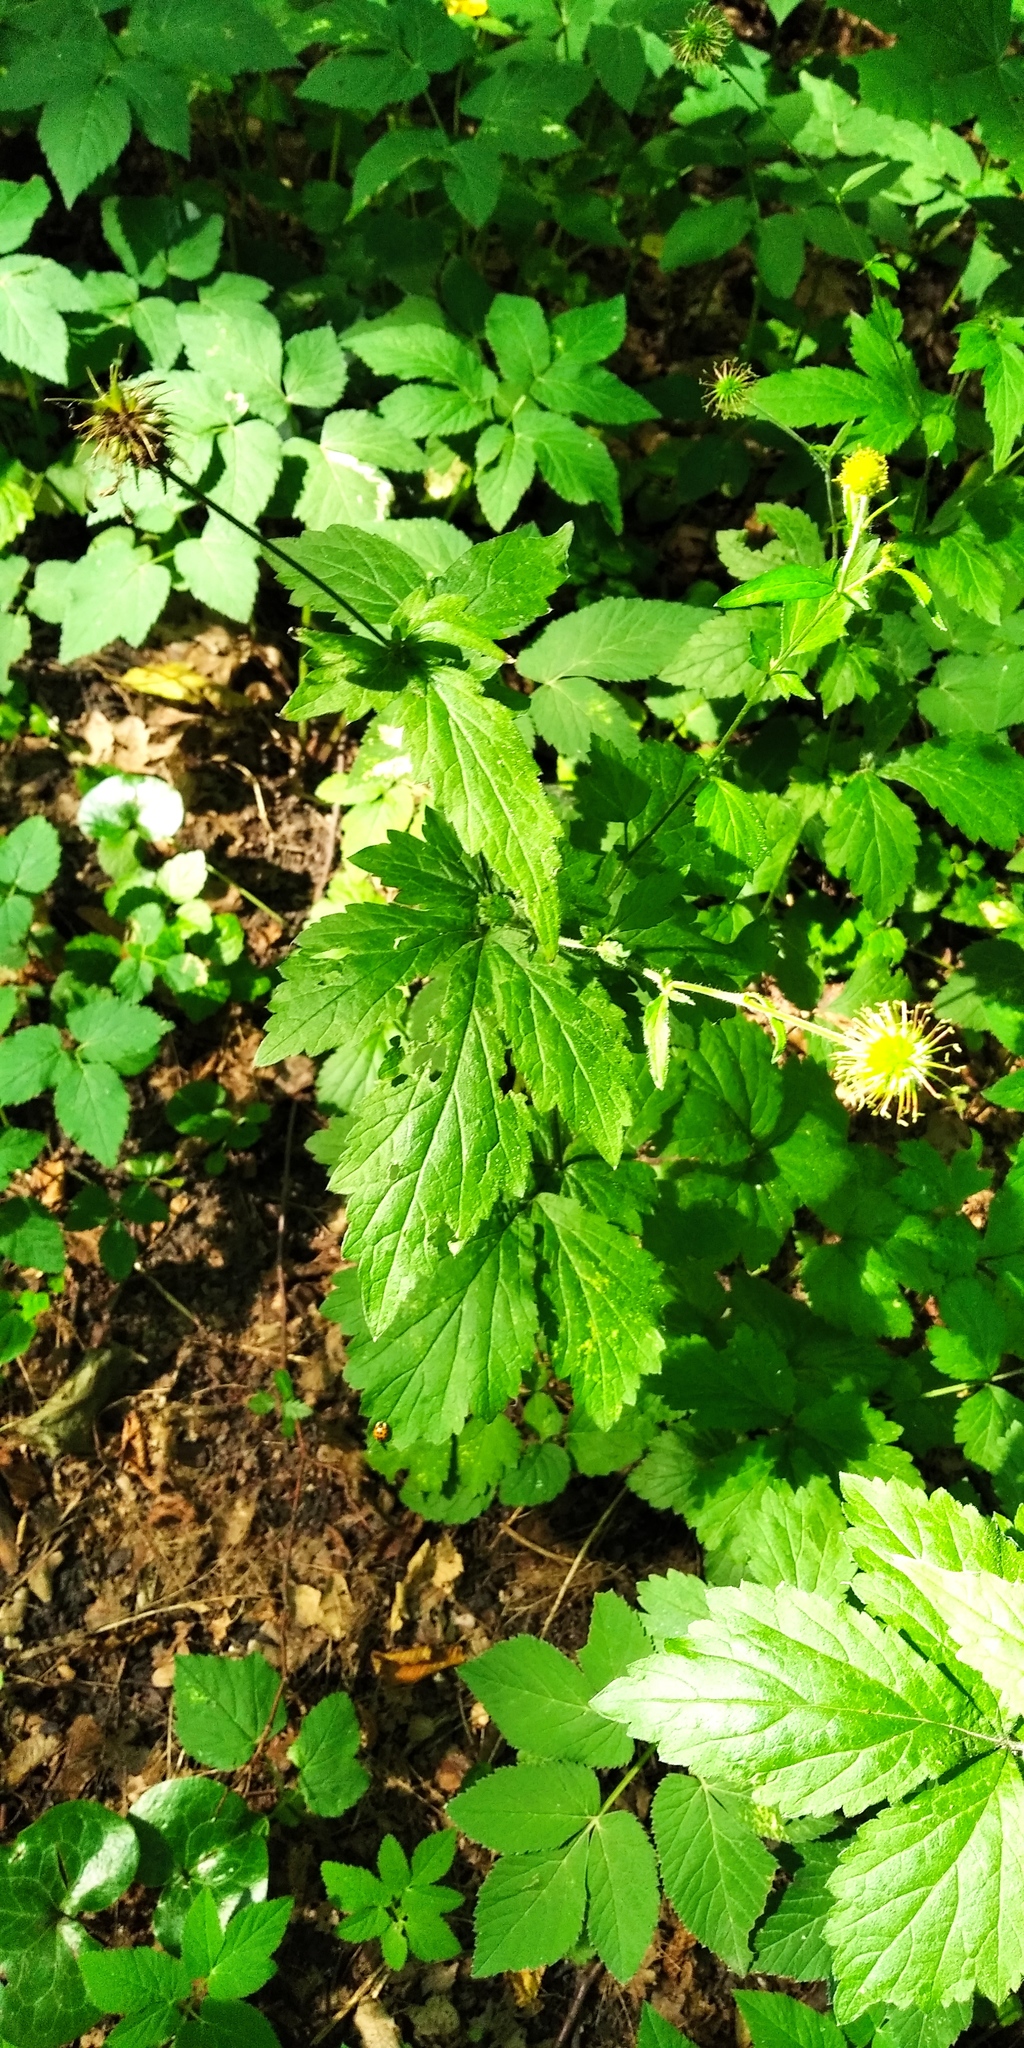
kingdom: Plantae
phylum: Tracheophyta
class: Magnoliopsida
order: Rosales
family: Rosaceae
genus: Geum
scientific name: Geum urbanum
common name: Wood avens
